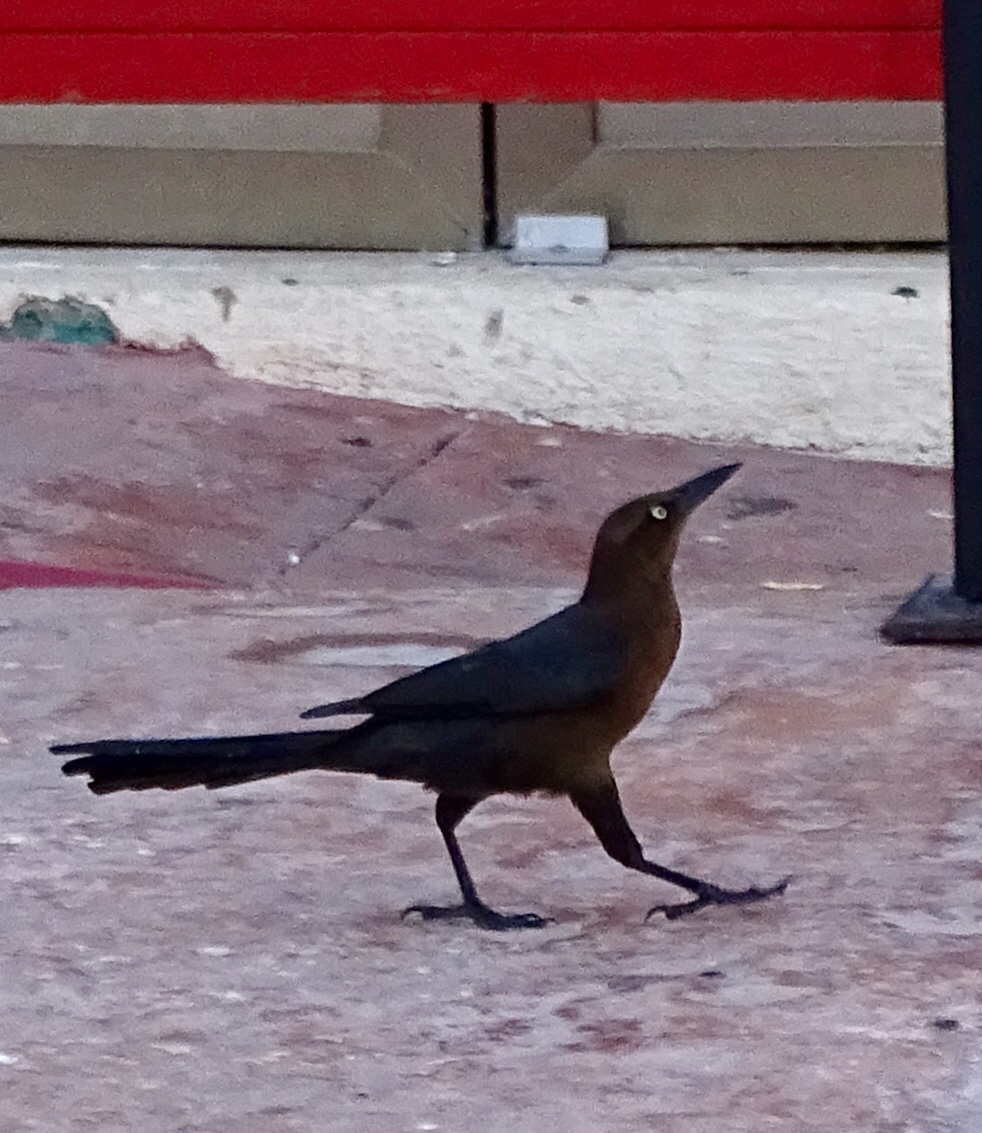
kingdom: Animalia
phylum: Chordata
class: Aves
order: Passeriformes
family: Icteridae
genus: Quiscalus
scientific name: Quiscalus mexicanus
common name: Great-tailed grackle
